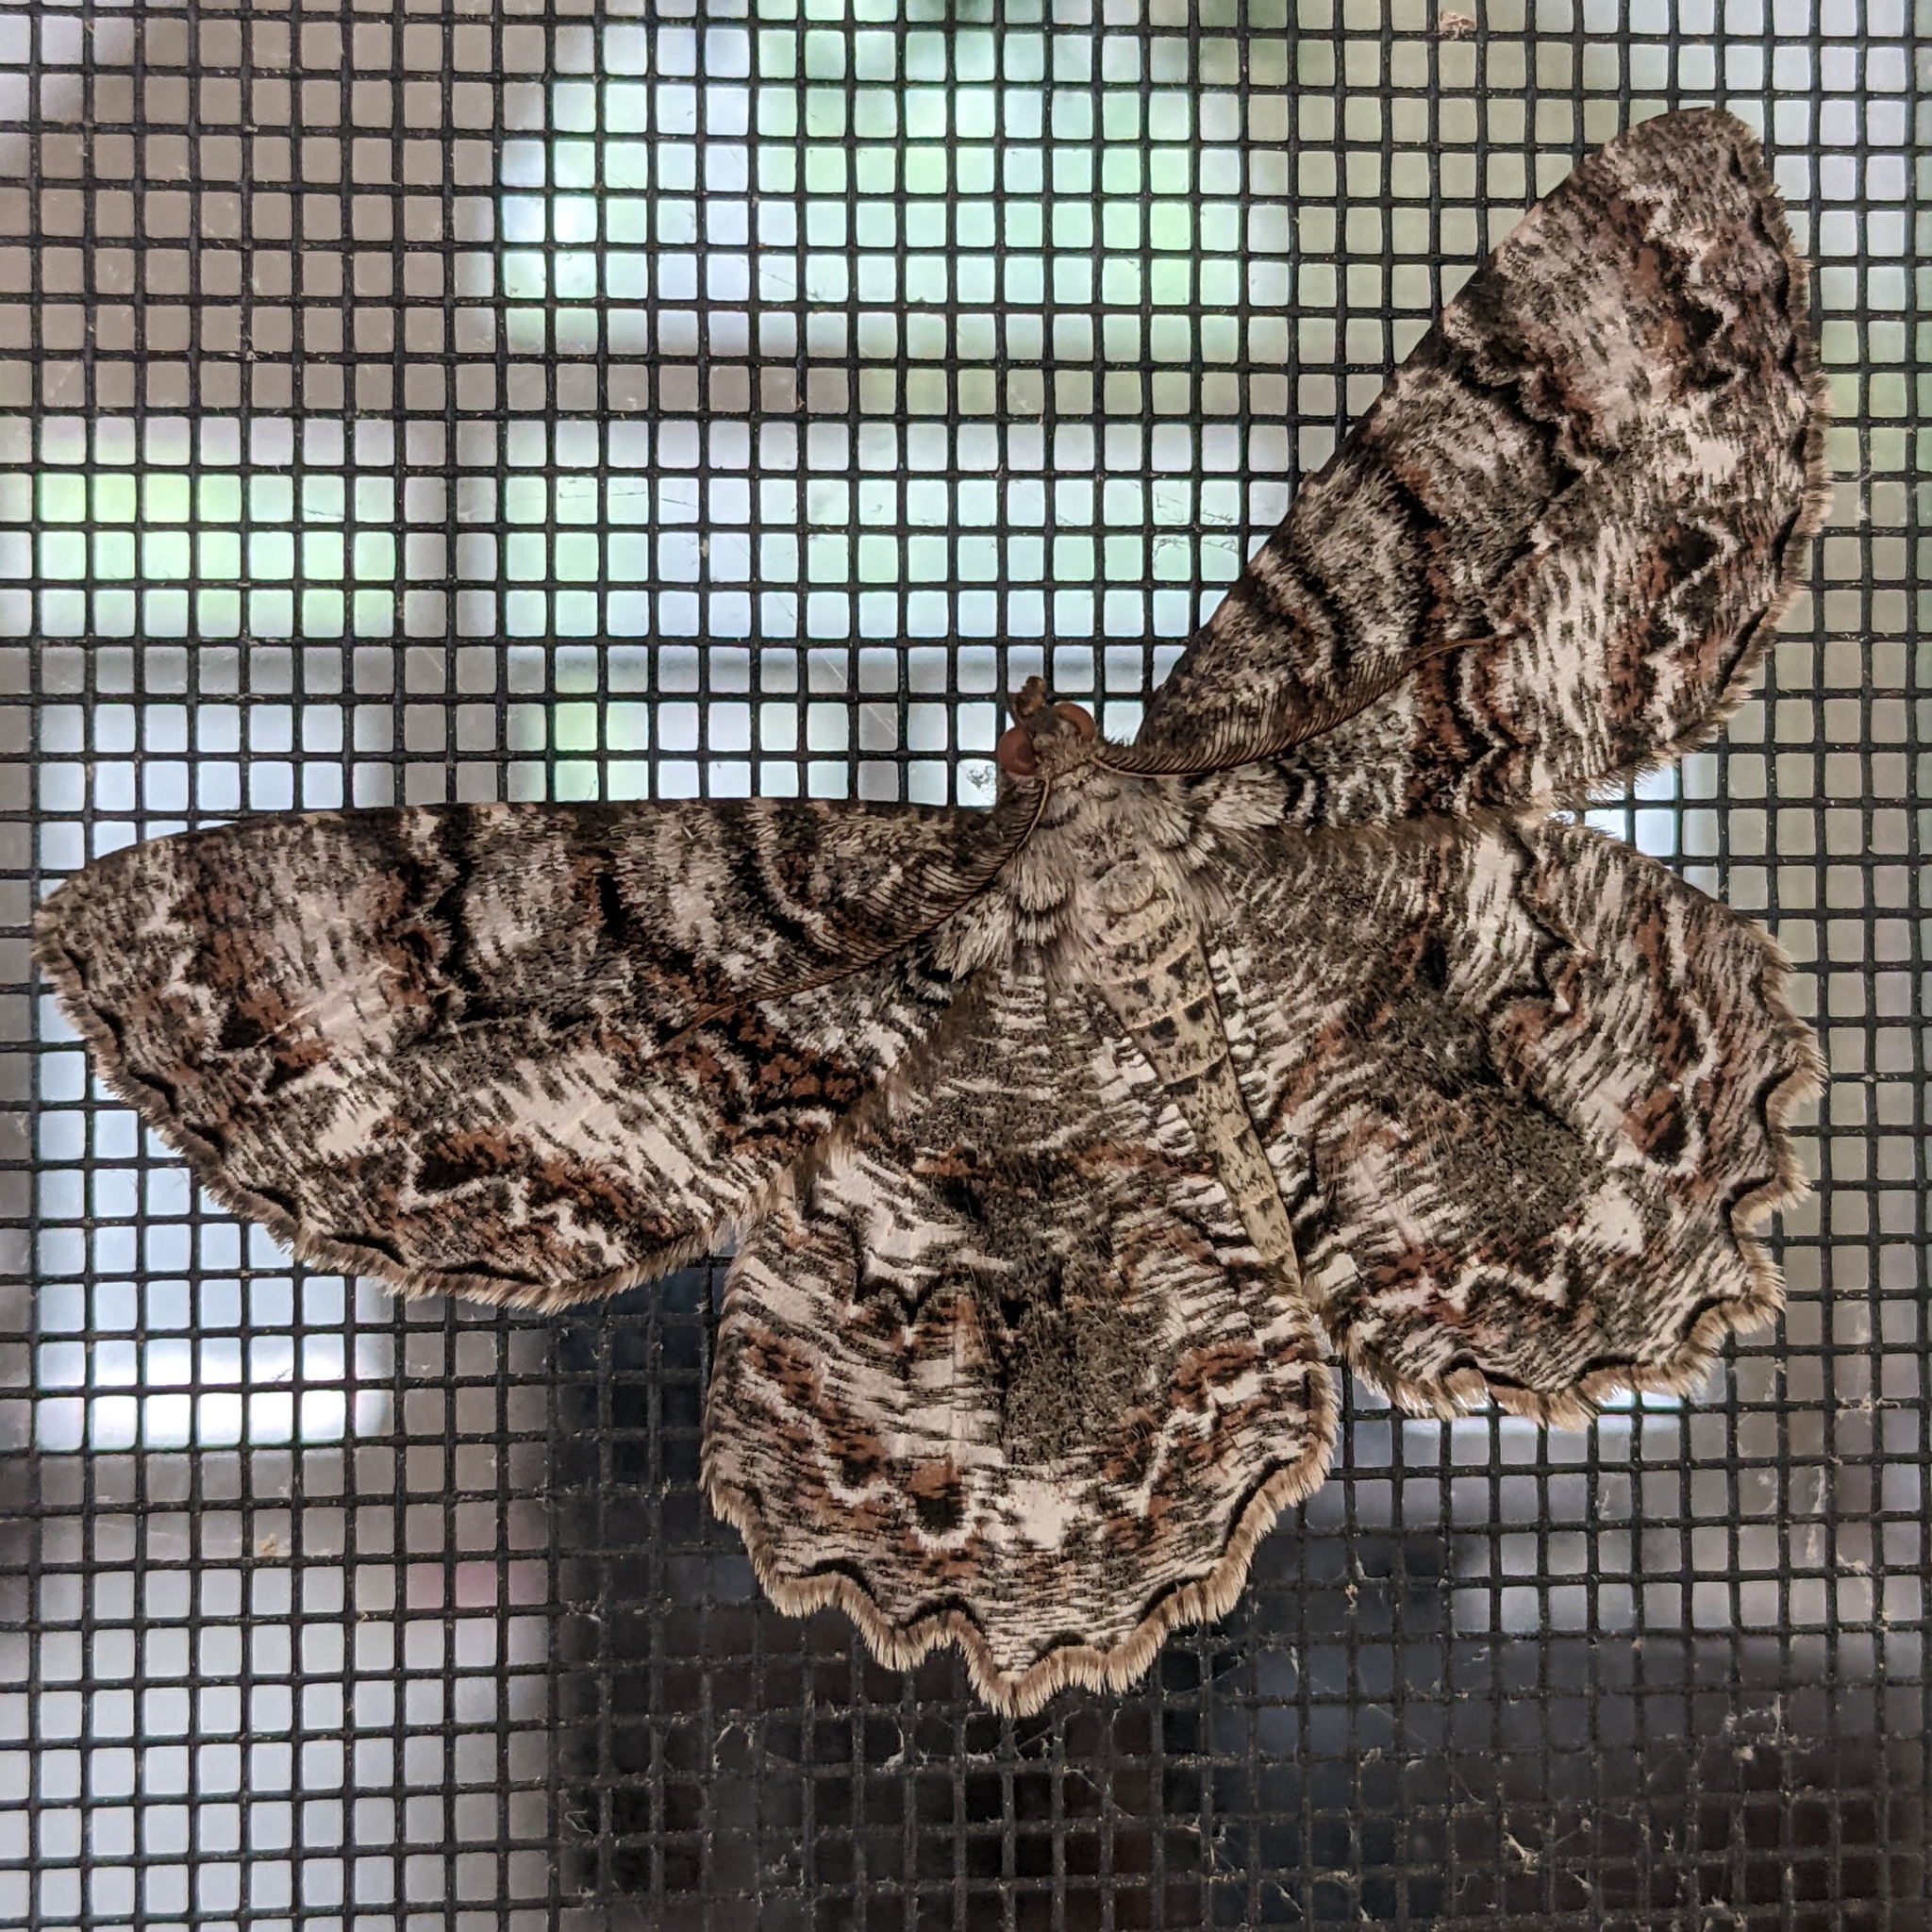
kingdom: Animalia
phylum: Arthropoda
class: Insecta
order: Lepidoptera
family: Geometridae
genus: Epimecis
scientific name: Epimecis hortaria
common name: Tulip-tree beauty
